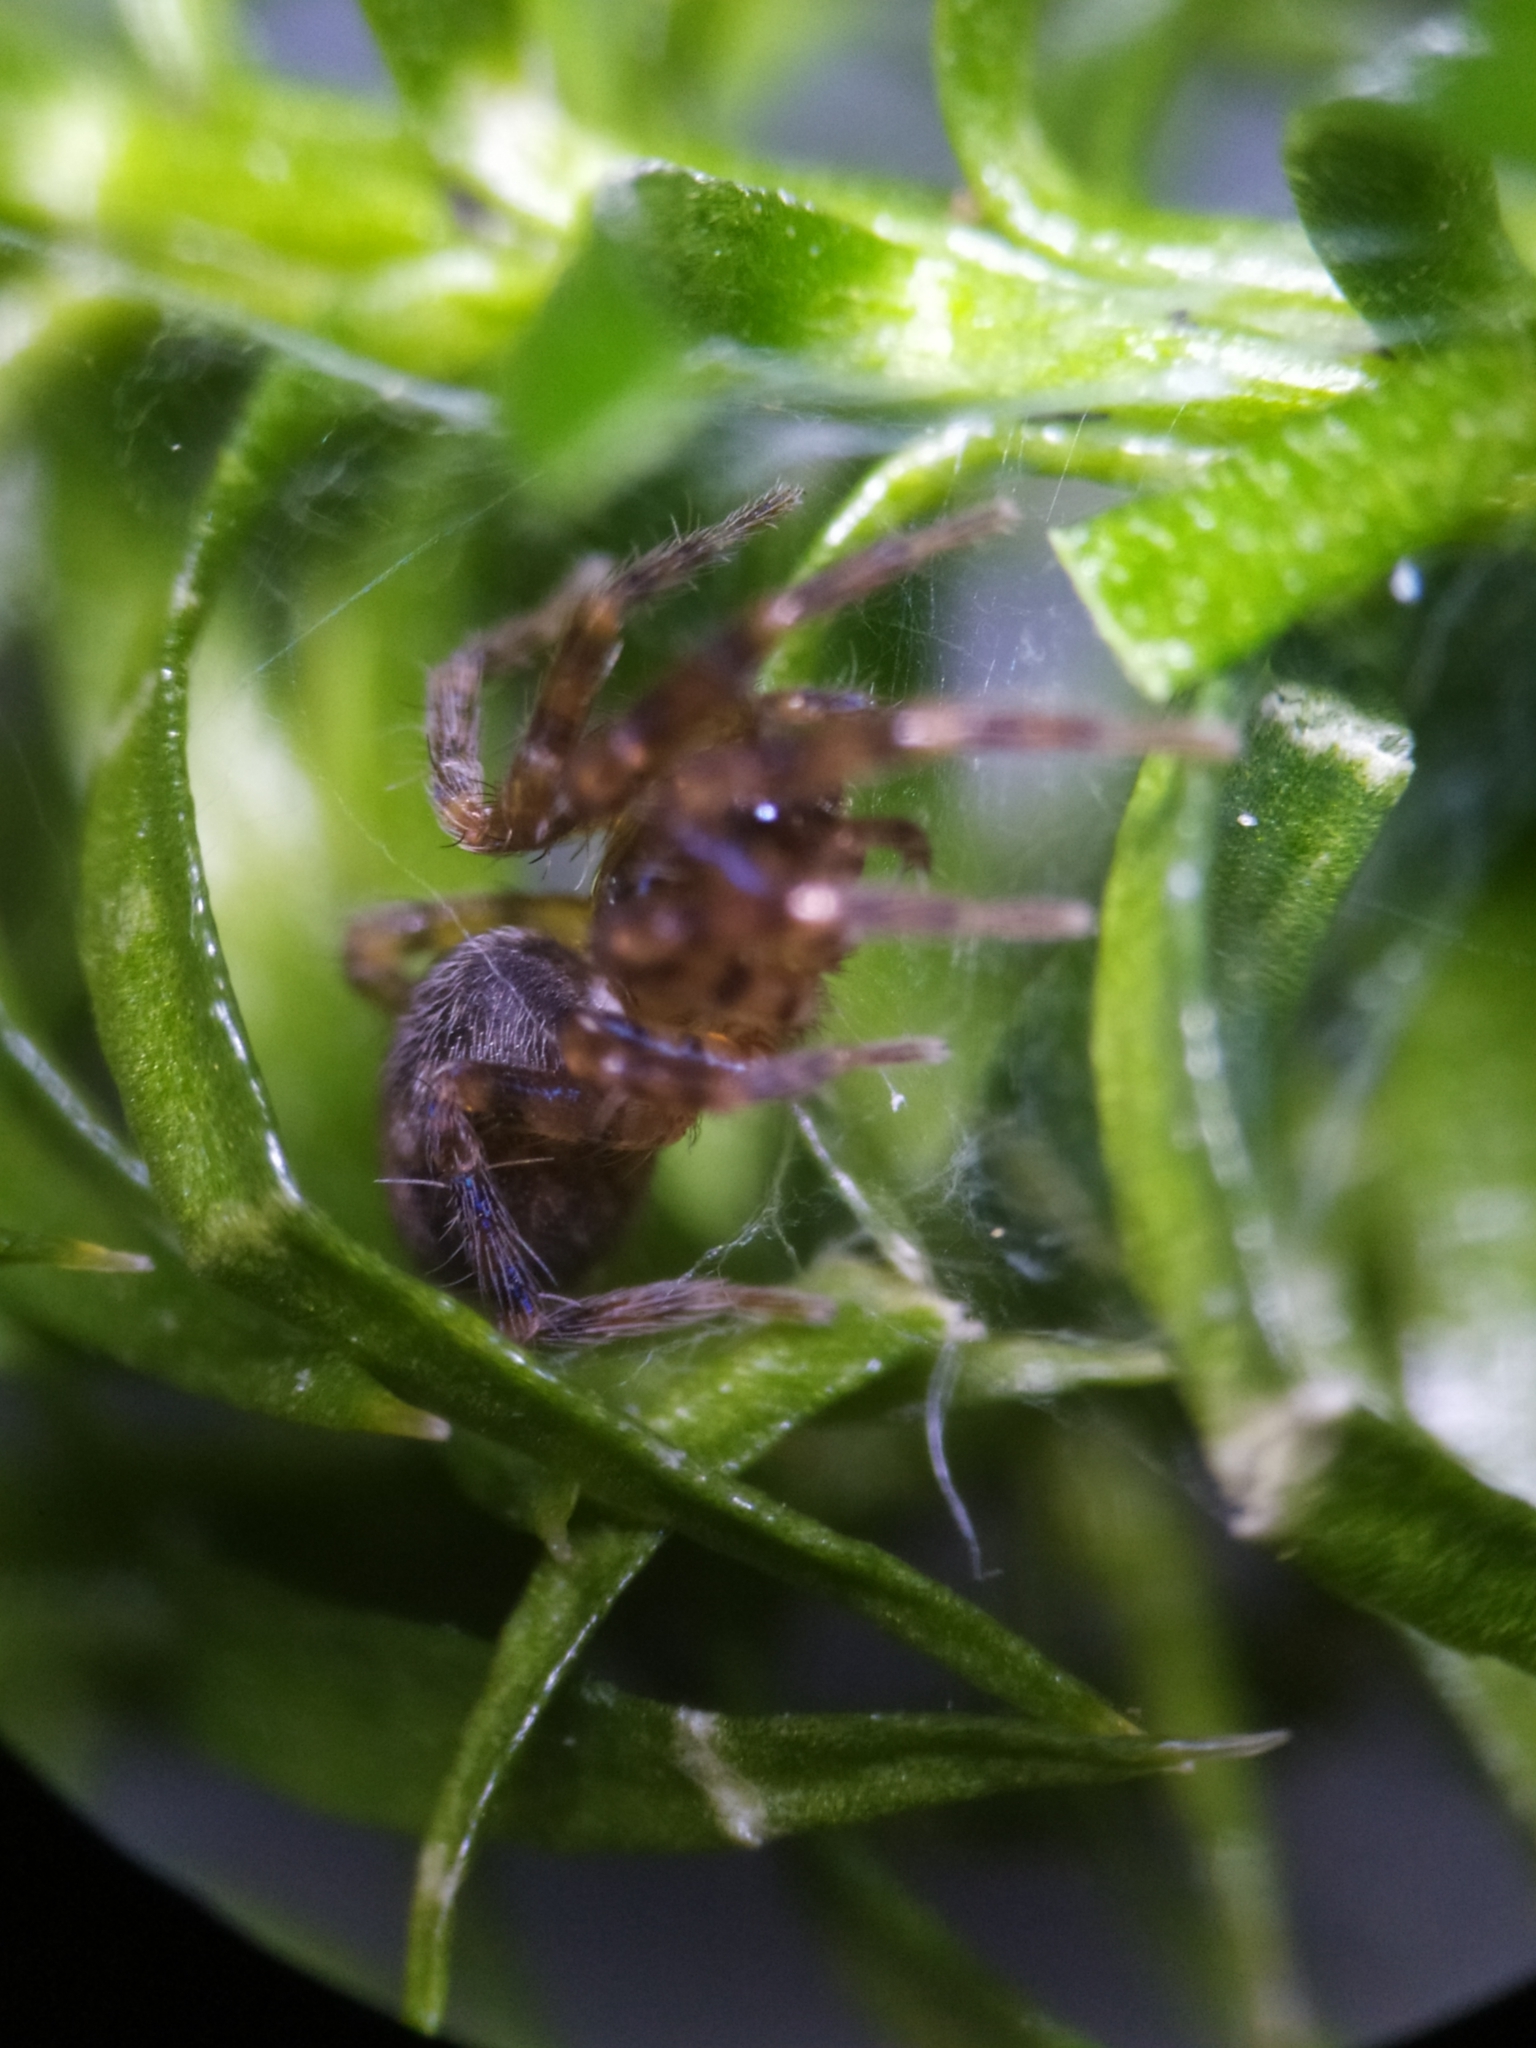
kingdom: Animalia
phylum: Arthropoda
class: Arachnida
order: Araneae
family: Cybaeidae
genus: Cryphoeca
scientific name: Cryphoeca silvicola
